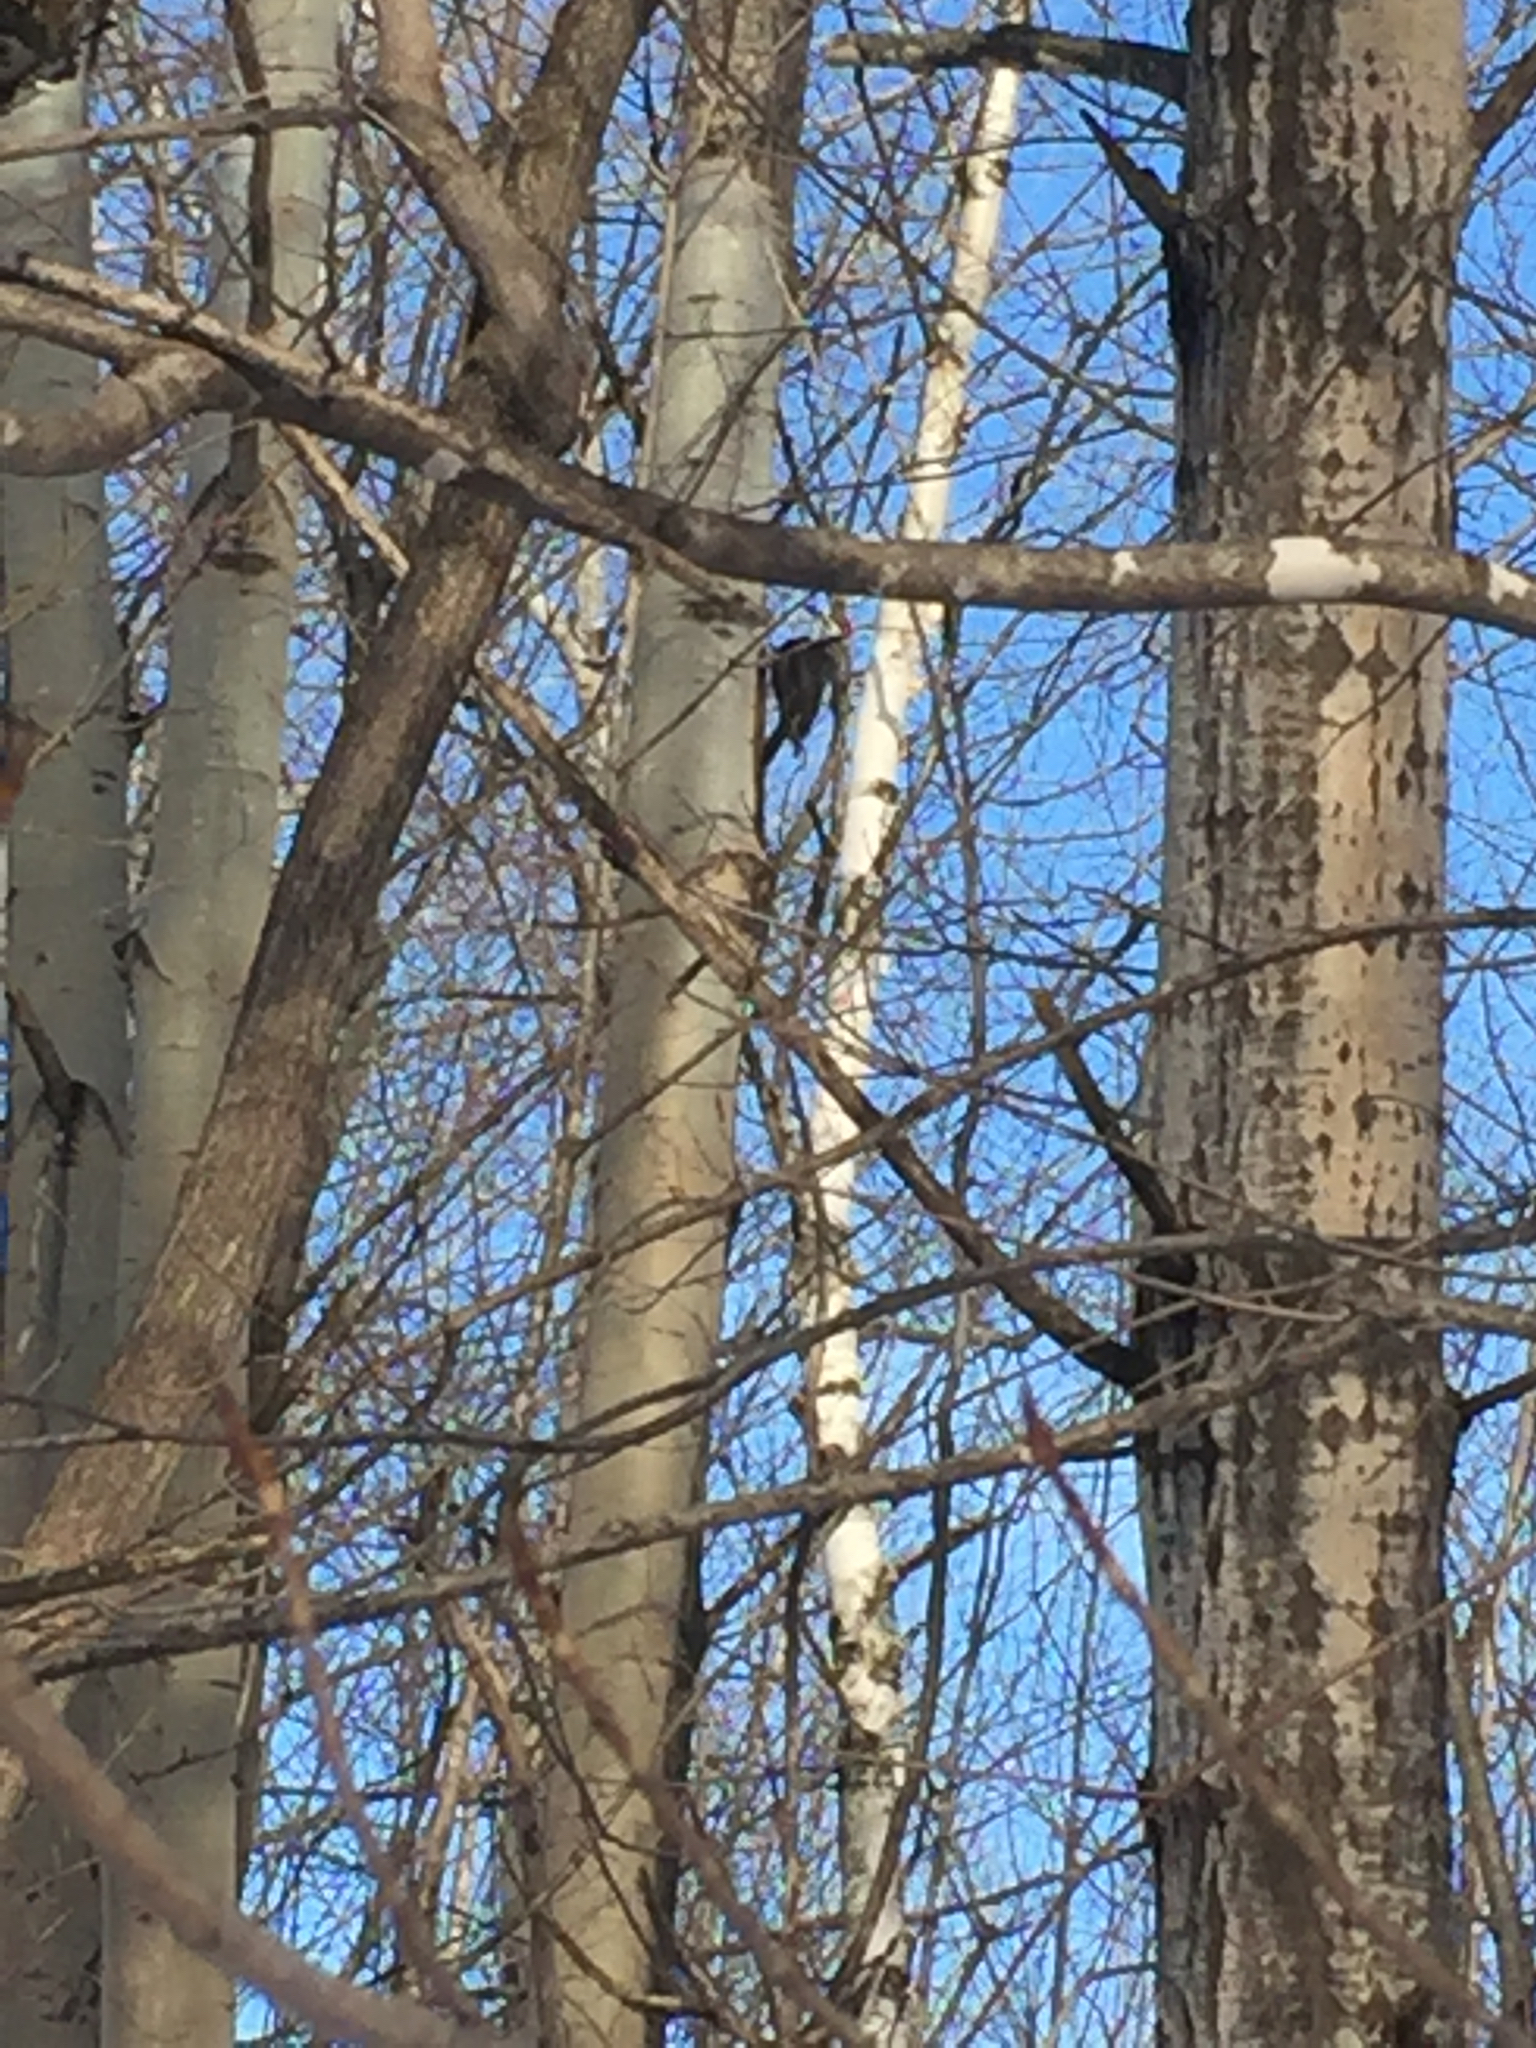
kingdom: Animalia
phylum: Chordata
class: Aves
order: Piciformes
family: Picidae
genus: Dryocopus
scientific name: Dryocopus pileatus
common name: Pileated woodpecker
